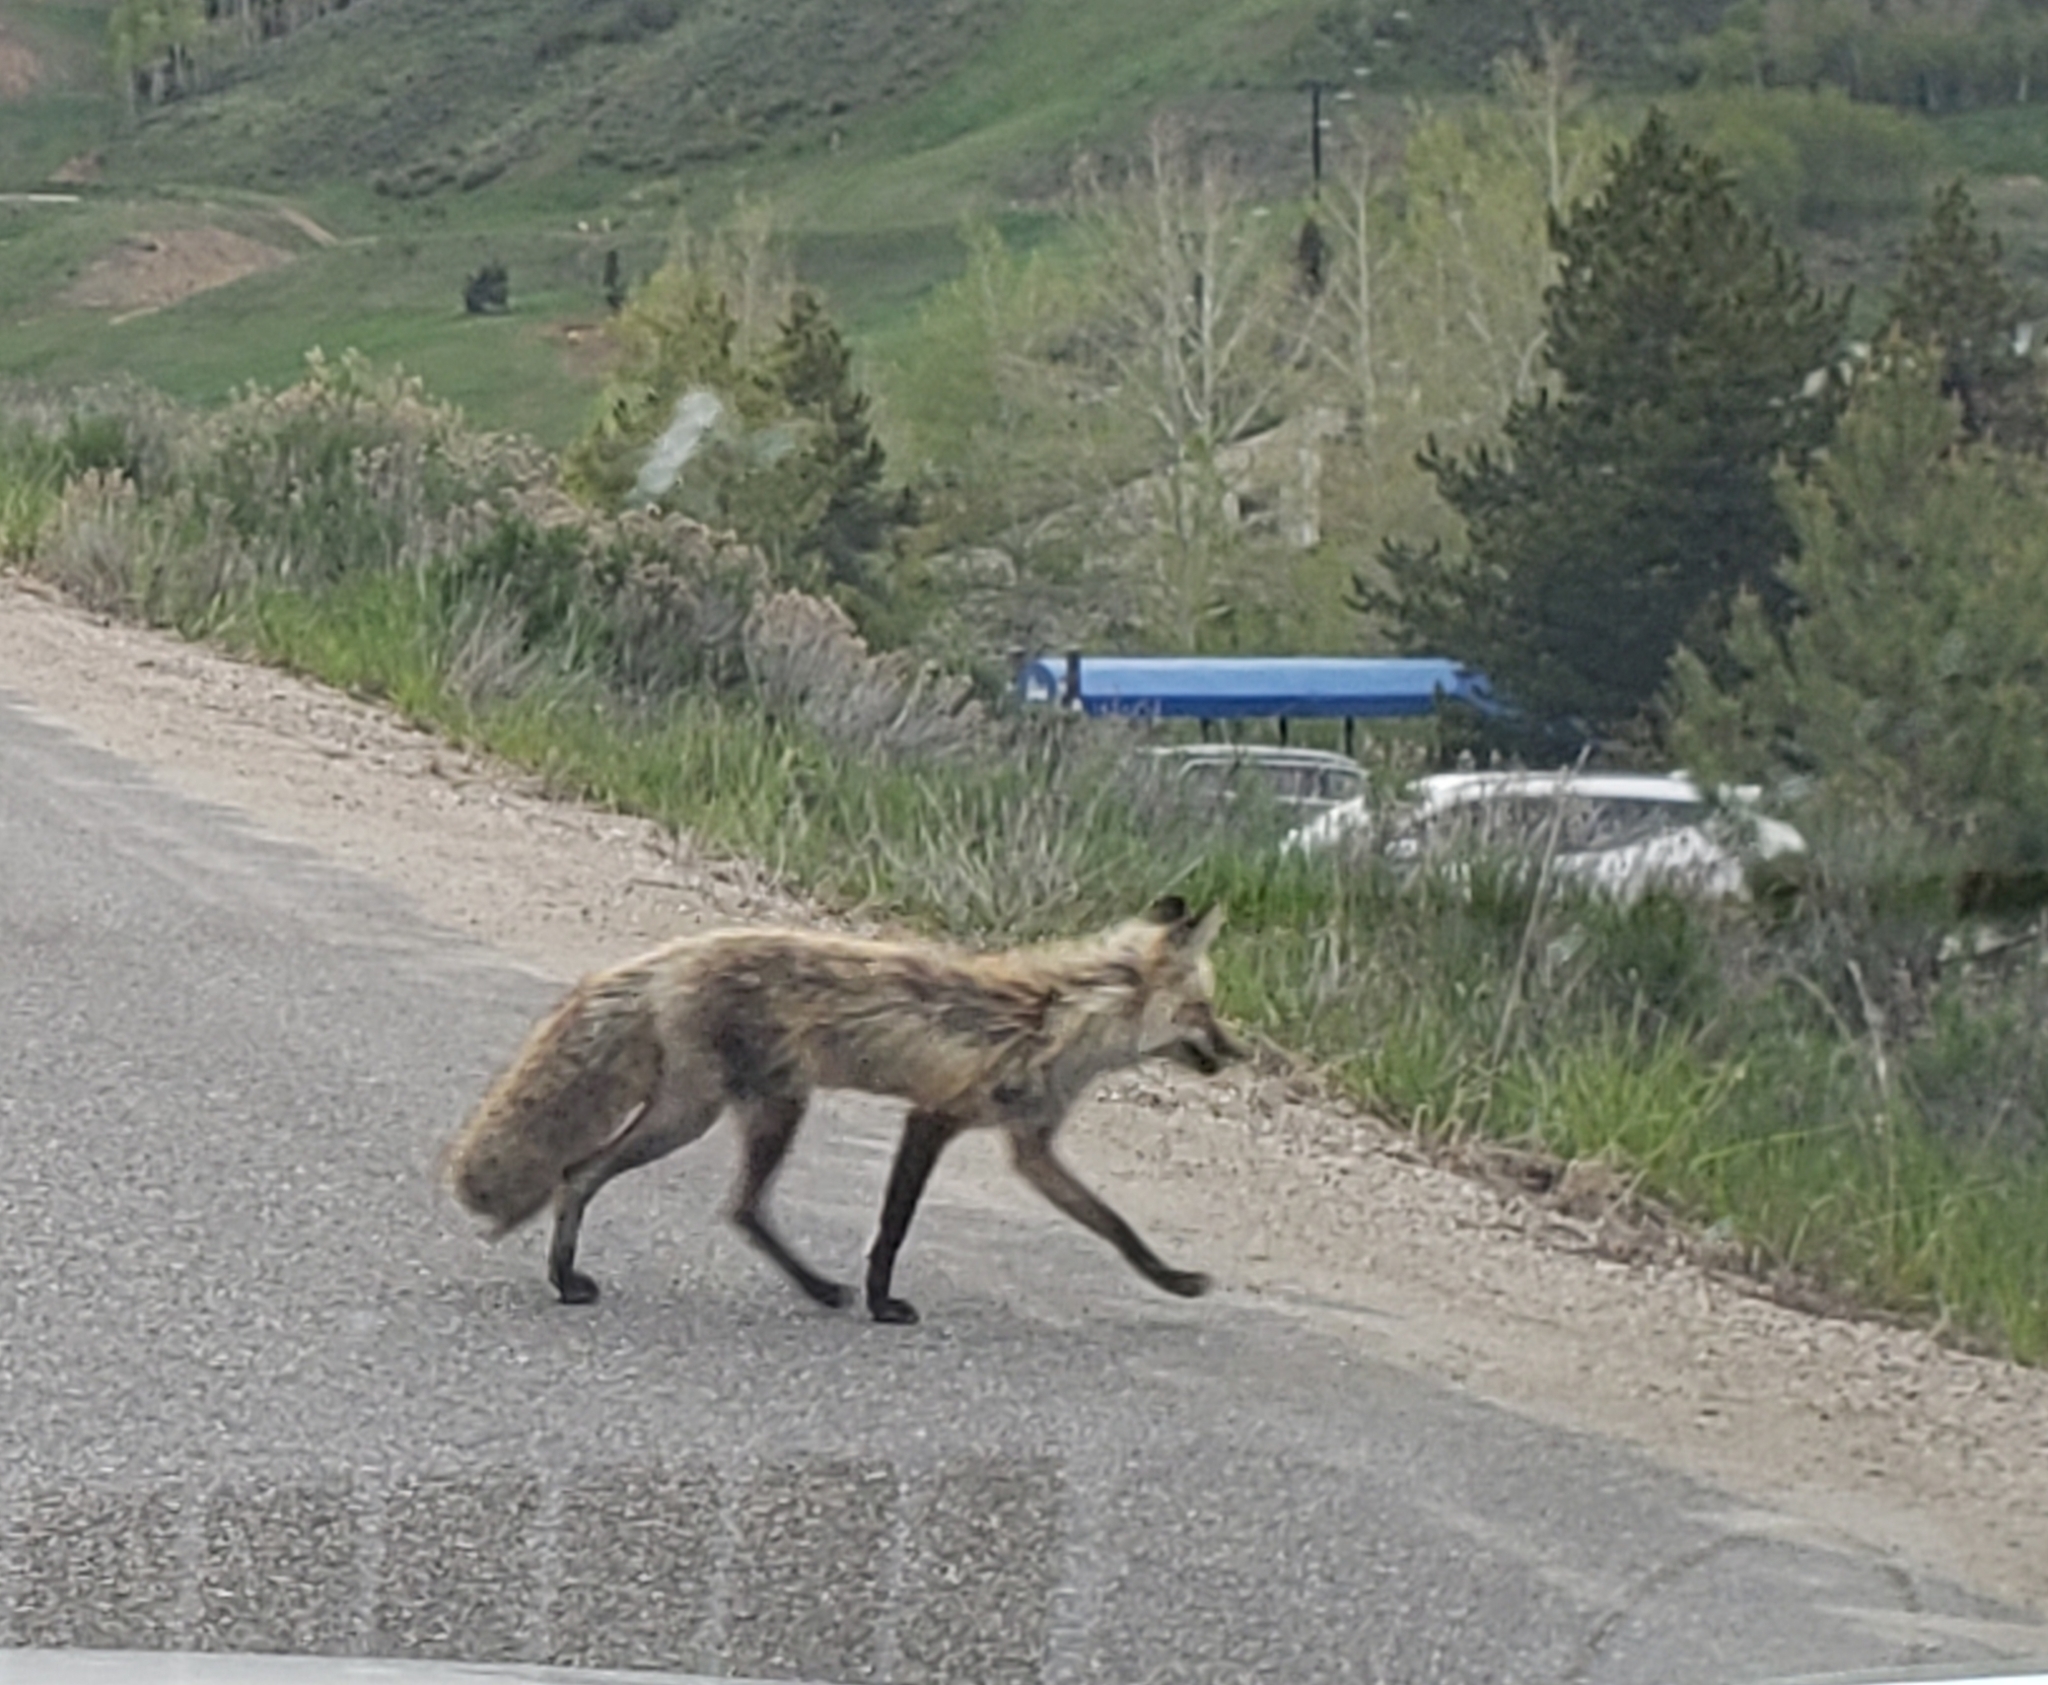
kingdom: Animalia
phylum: Chordata
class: Mammalia
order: Carnivora
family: Canidae
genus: Vulpes
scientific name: Vulpes vulpes
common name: Red fox
